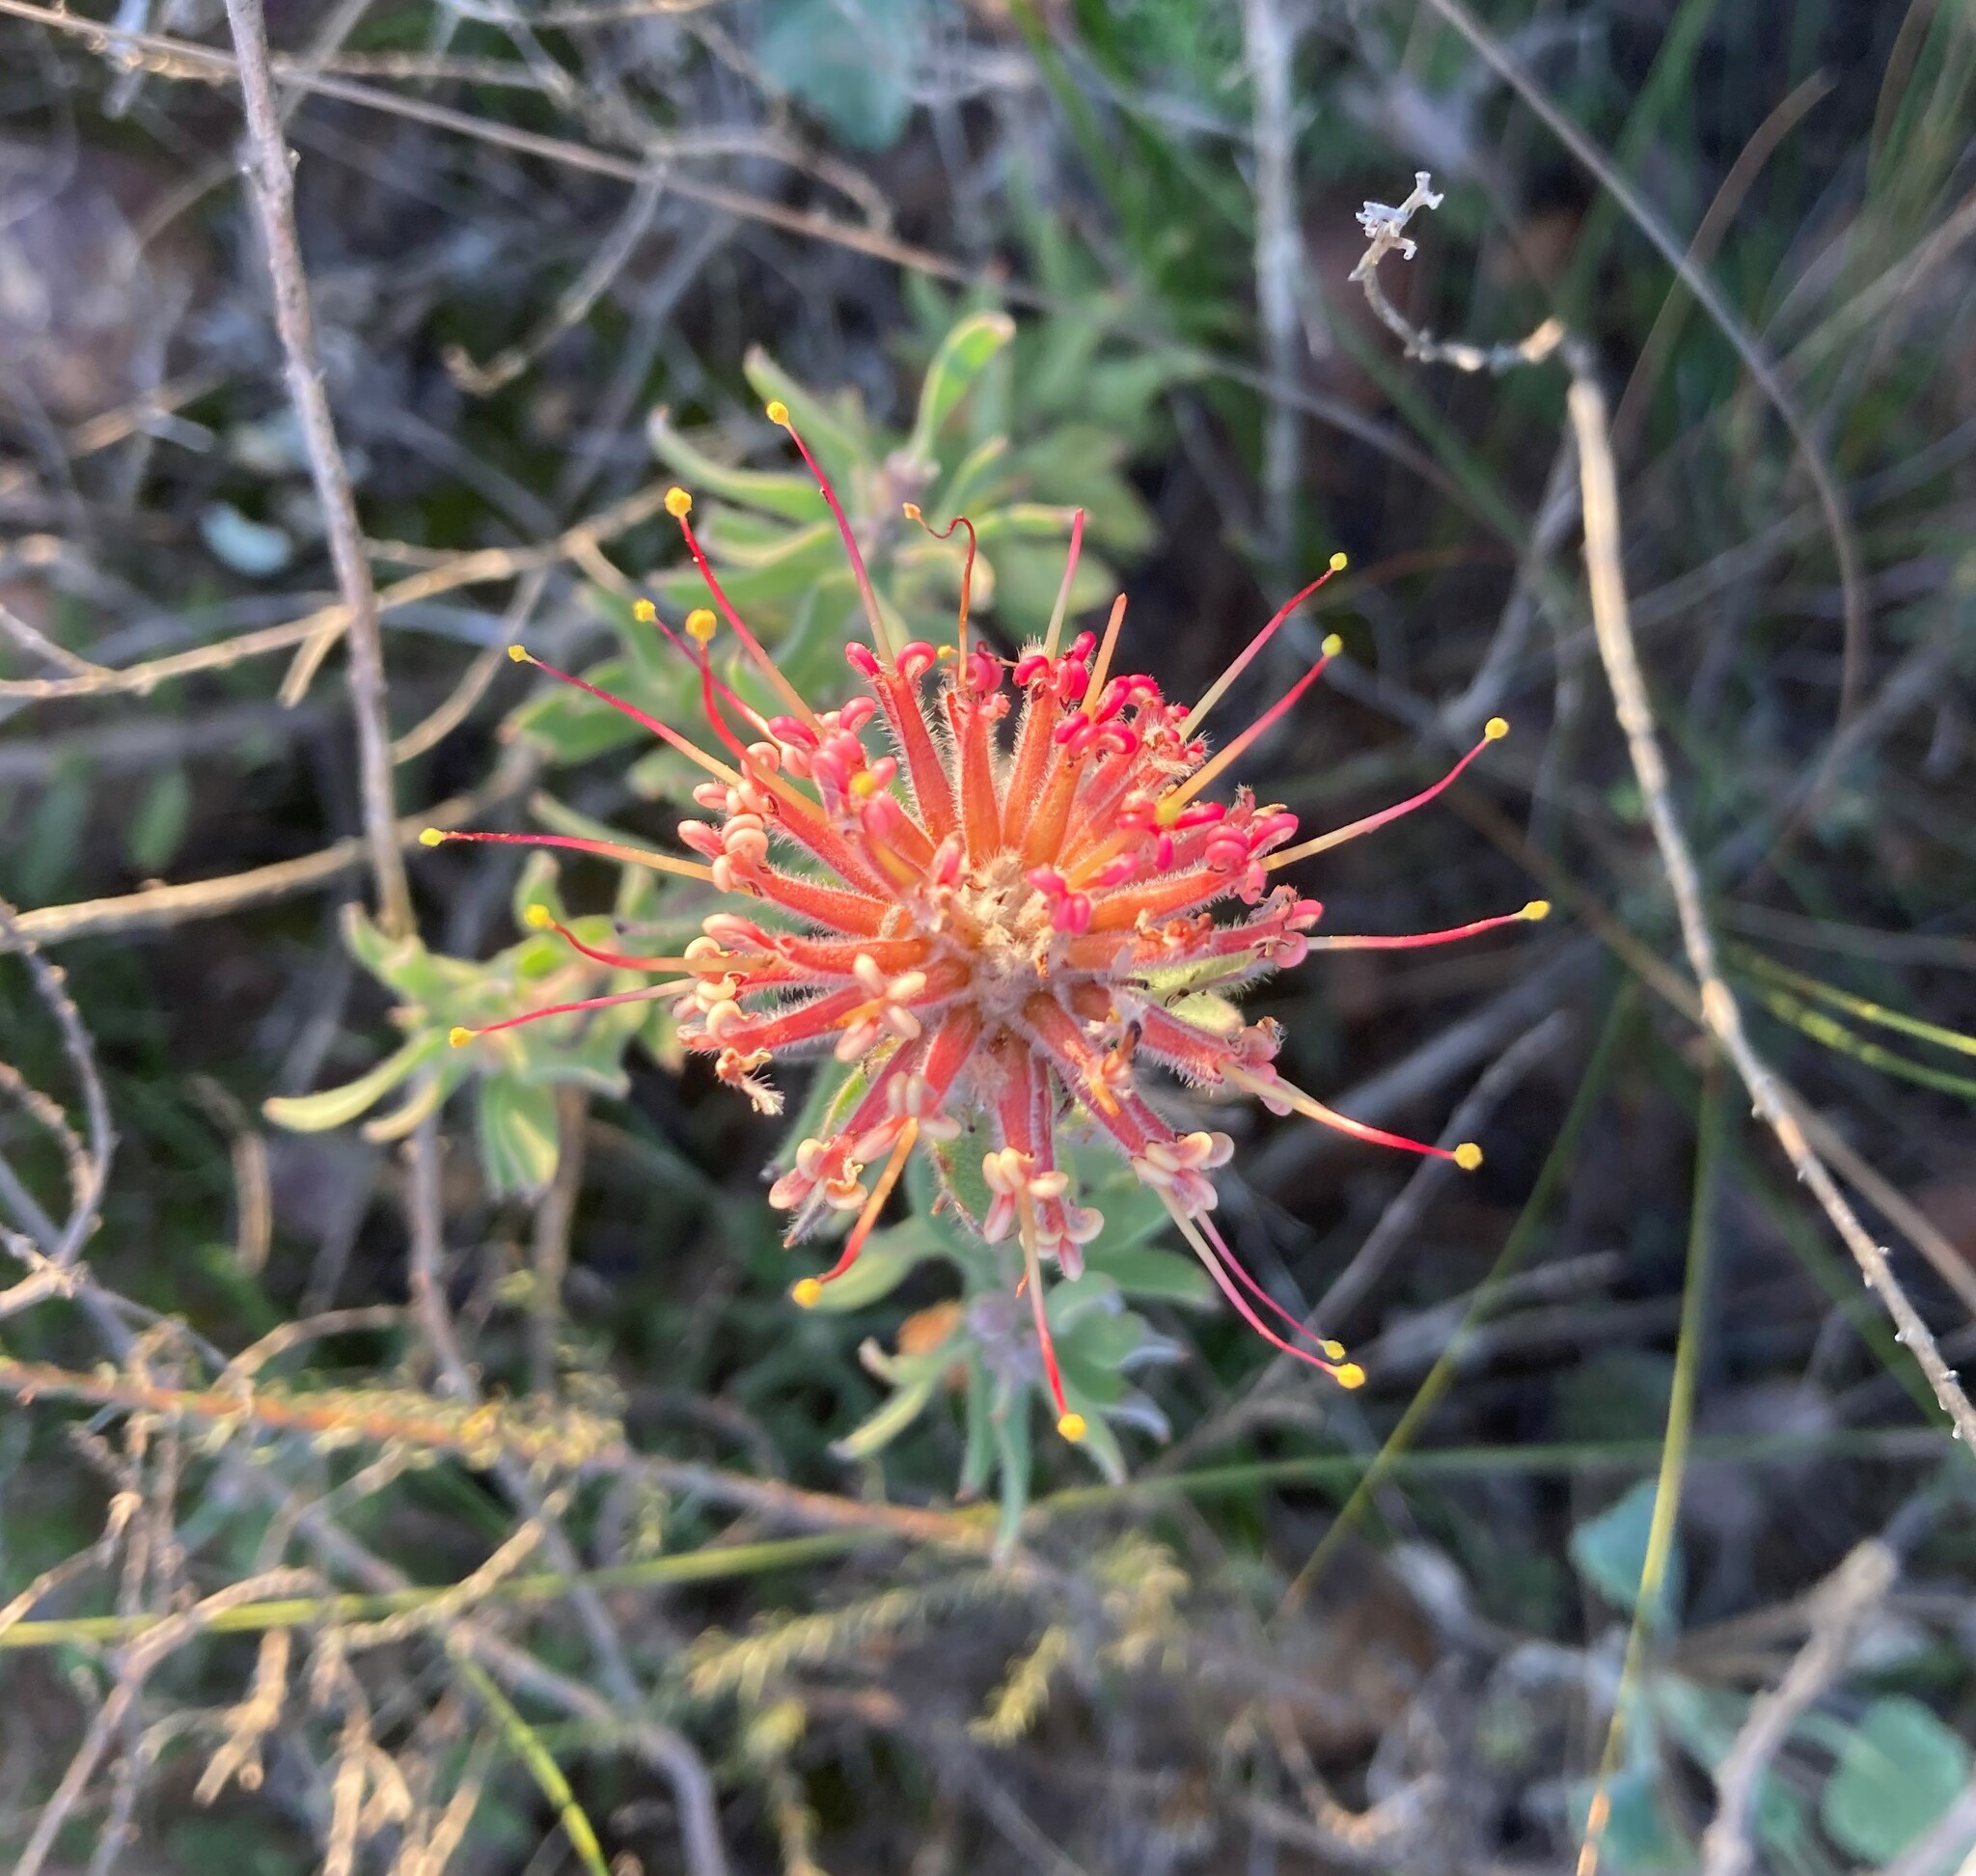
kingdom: Plantae
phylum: Tracheophyta
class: Magnoliopsida
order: Proteales
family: Proteaceae
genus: Leucospermum
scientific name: Leucospermum calligerum
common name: Arid pincushion
